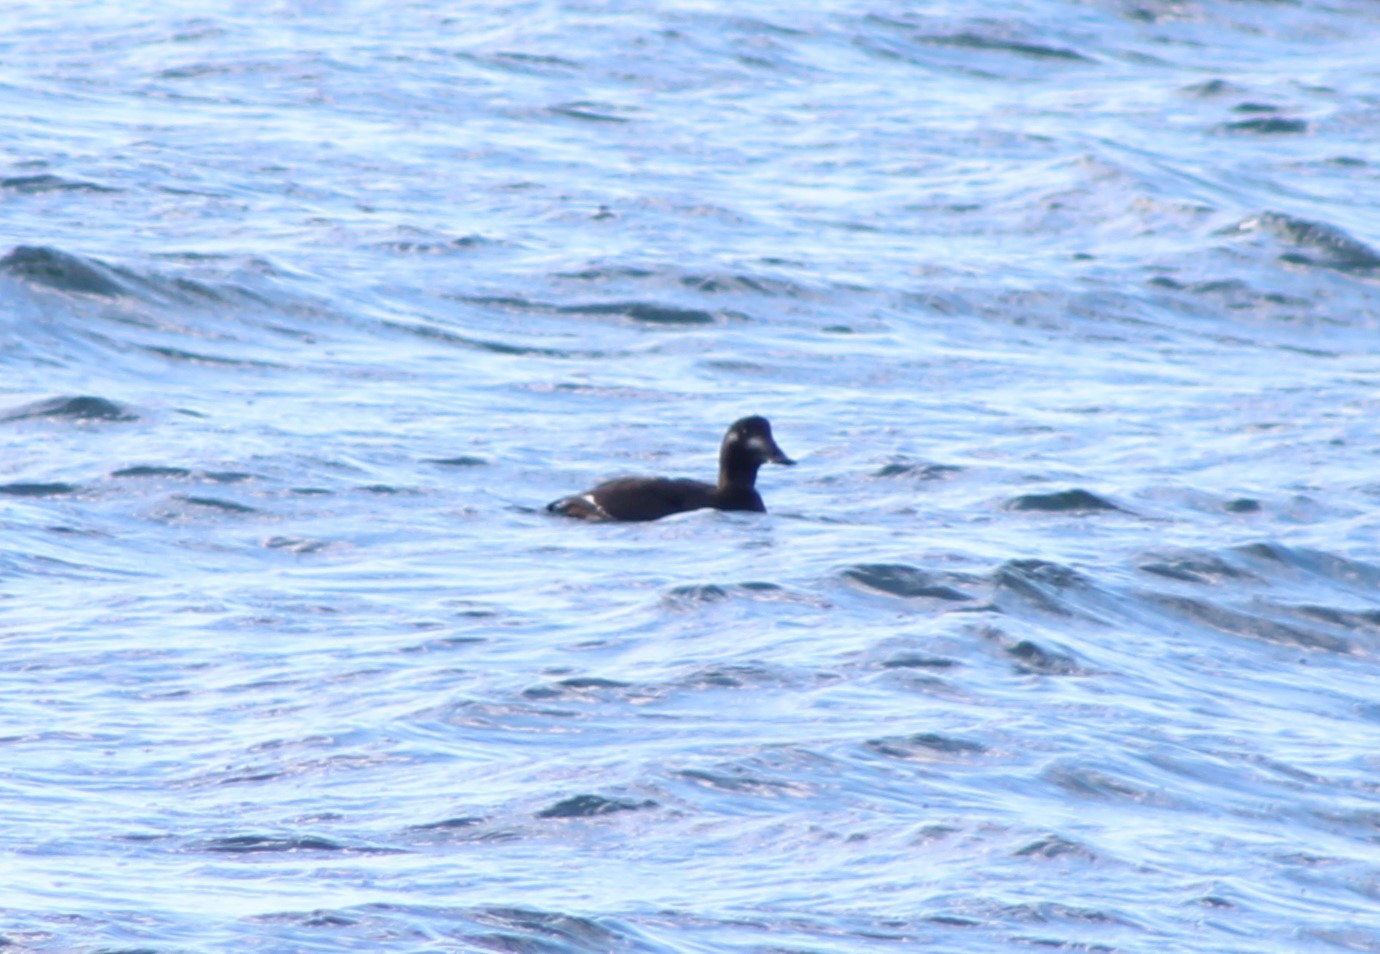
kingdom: Animalia
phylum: Chordata
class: Aves
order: Anseriformes
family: Anatidae
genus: Melanitta
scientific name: Melanitta deglandi
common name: White-winged scoter
